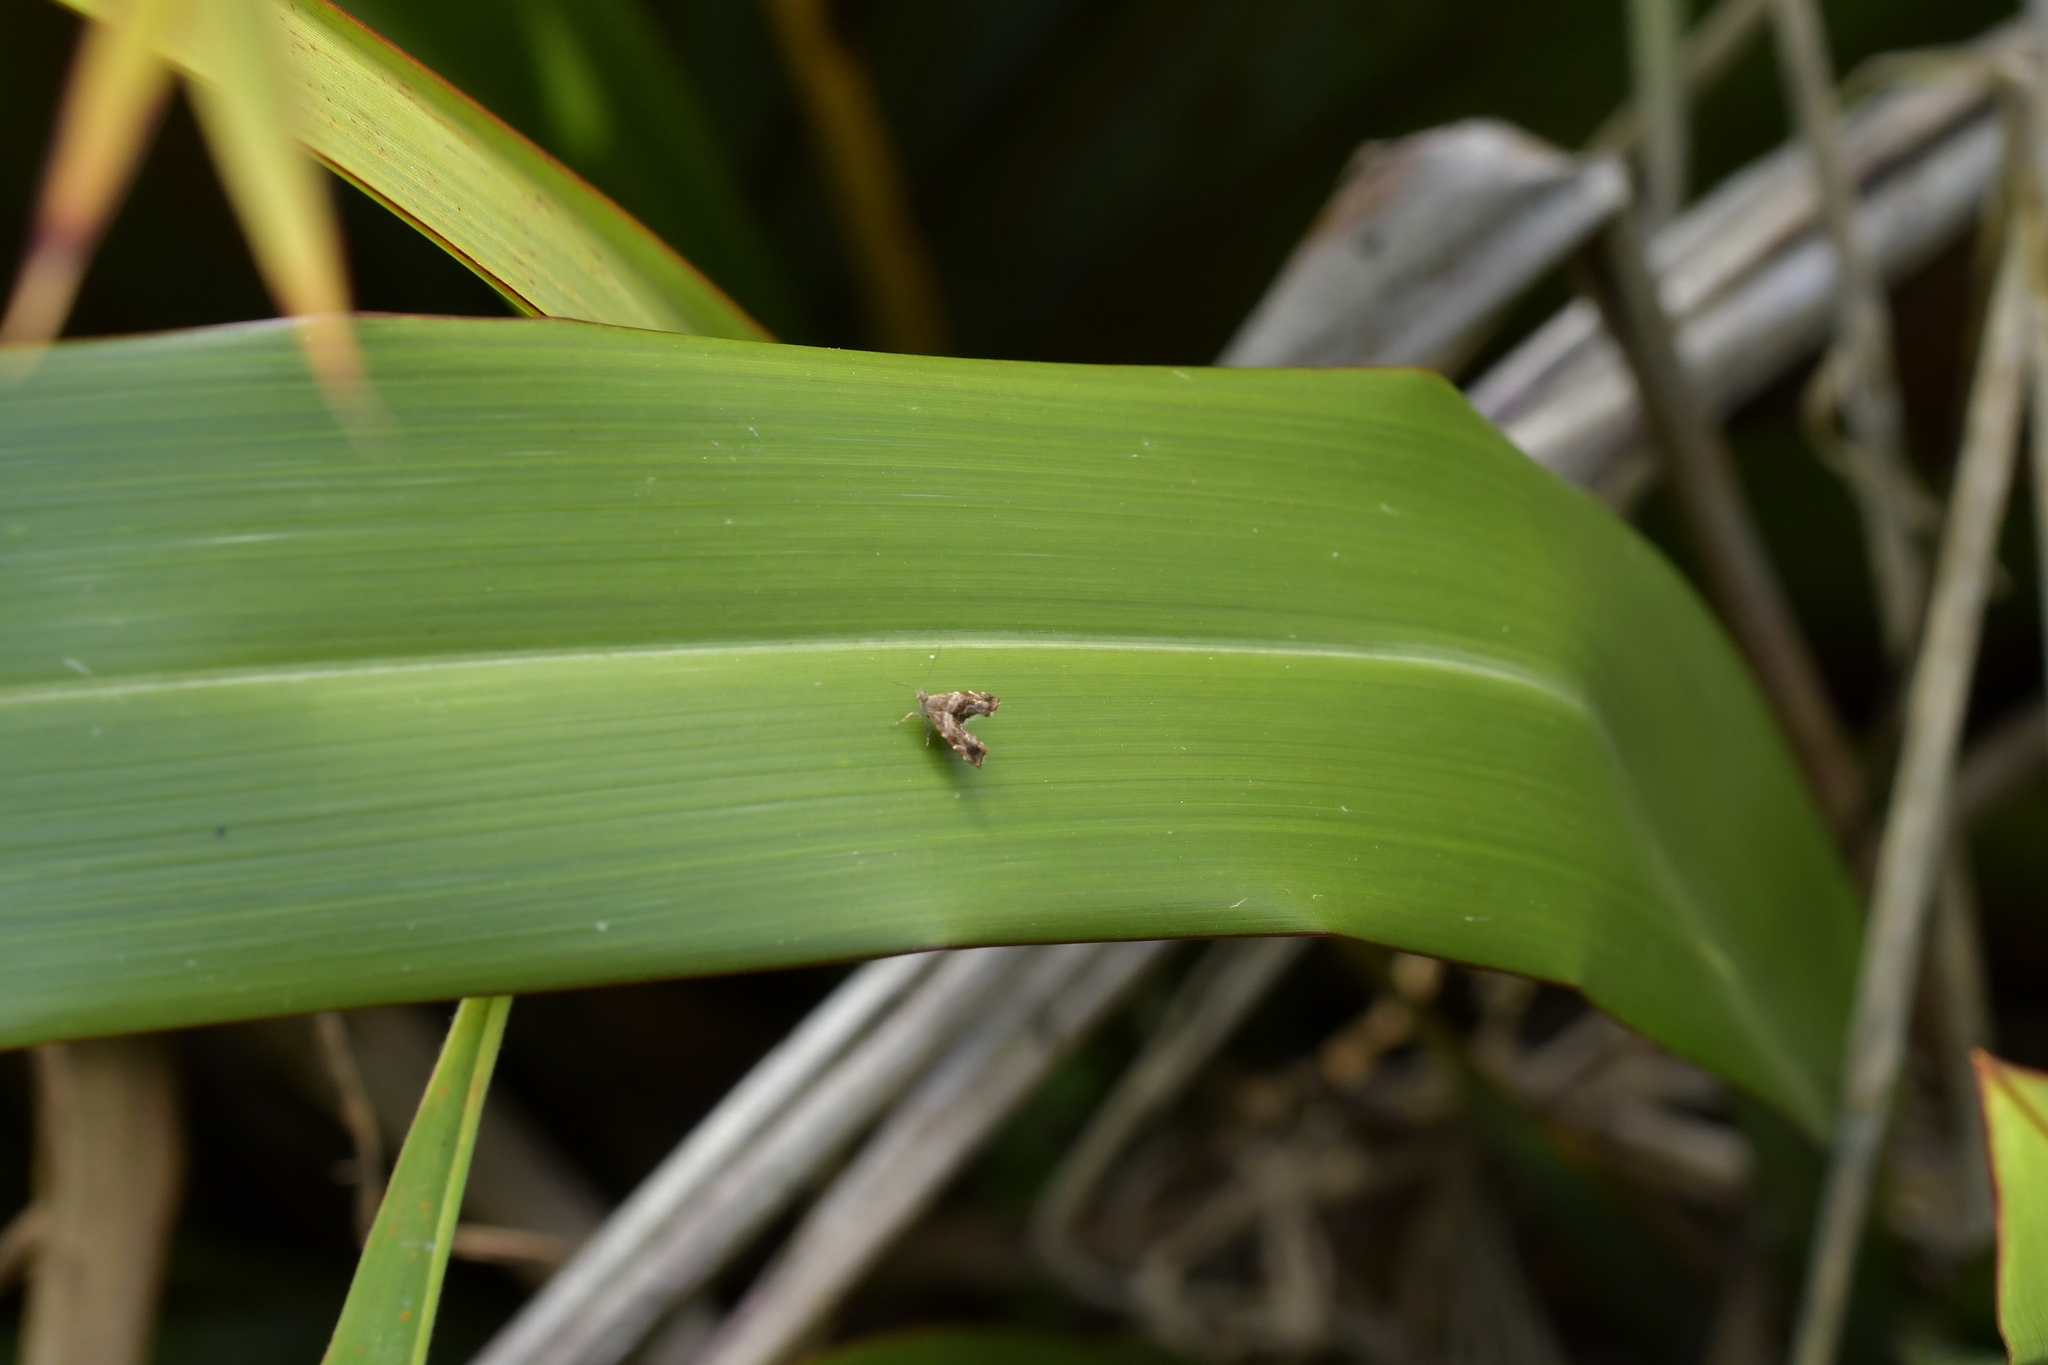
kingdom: Animalia
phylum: Arthropoda
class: Insecta
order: Lepidoptera
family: Choreutidae
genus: Asterivora
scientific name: Asterivora colpota
